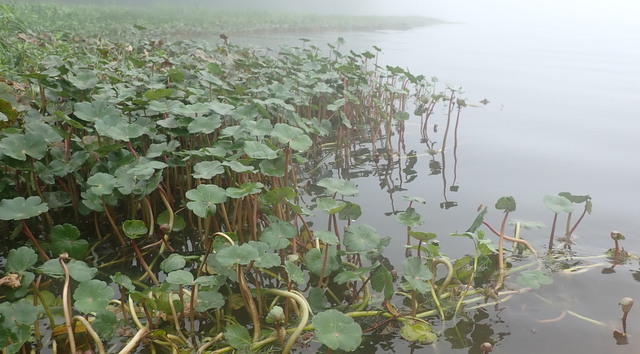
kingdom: Plantae
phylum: Tracheophyta
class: Magnoliopsida
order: Apiales
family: Araliaceae
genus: Hydrocotyle
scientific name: Hydrocotyle ranunculoides
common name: Floating pennywort
